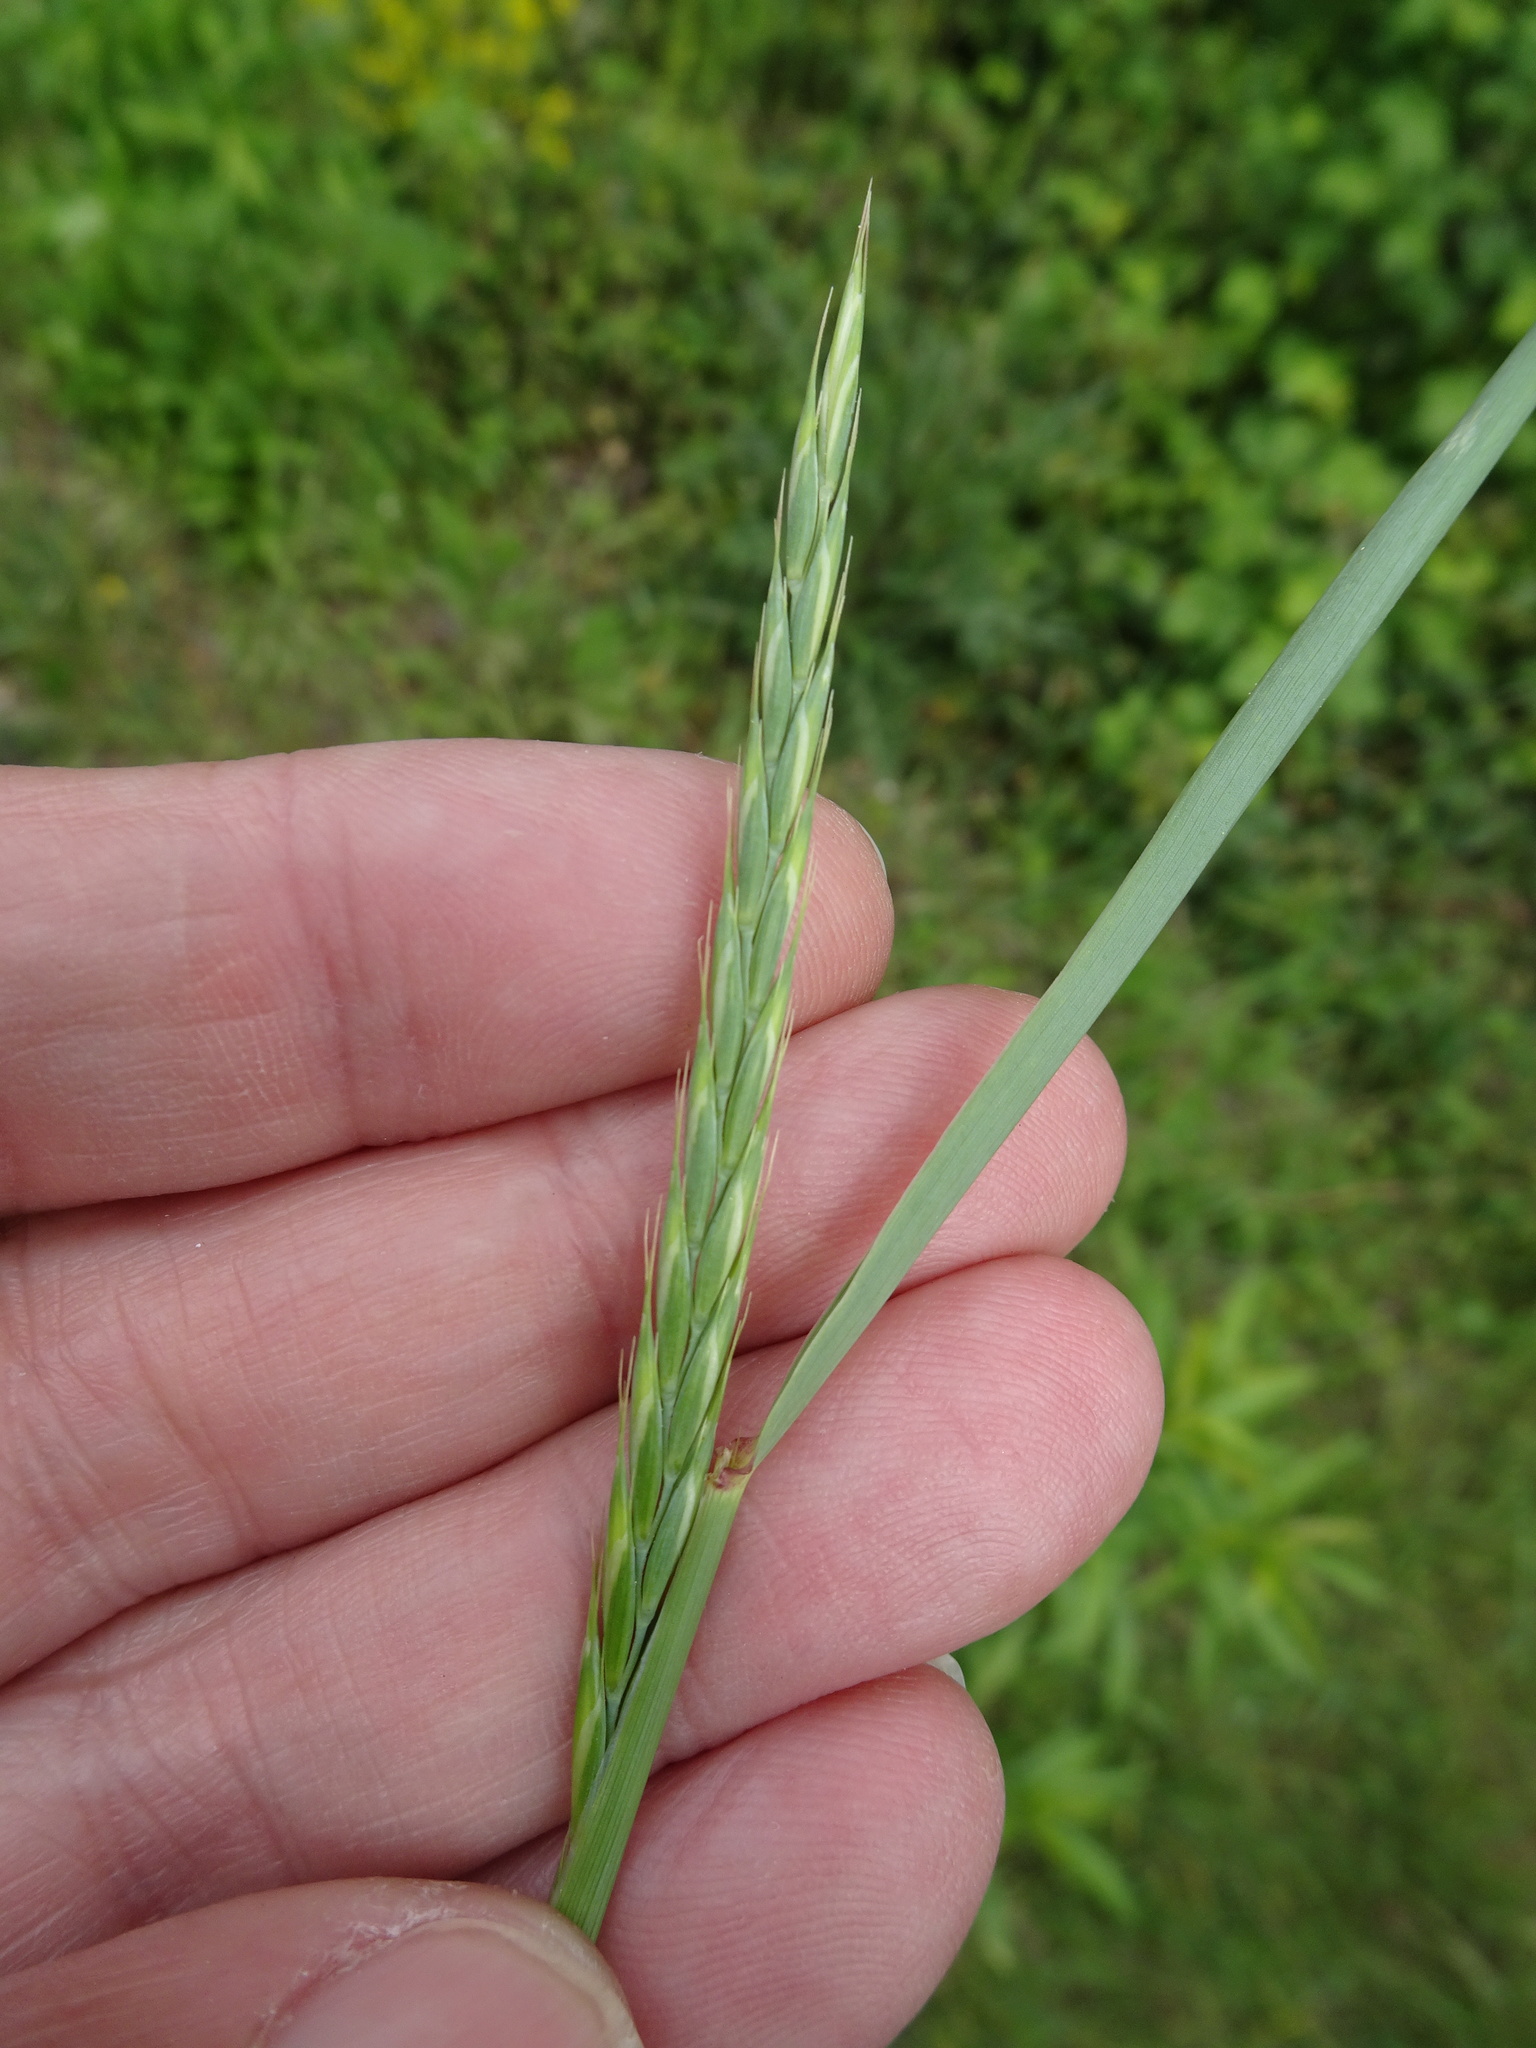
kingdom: Plantae
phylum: Tracheophyta
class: Liliopsida
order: Poales
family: Poaceae
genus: Elymus
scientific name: Elymus caninus
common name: Bearded couch
